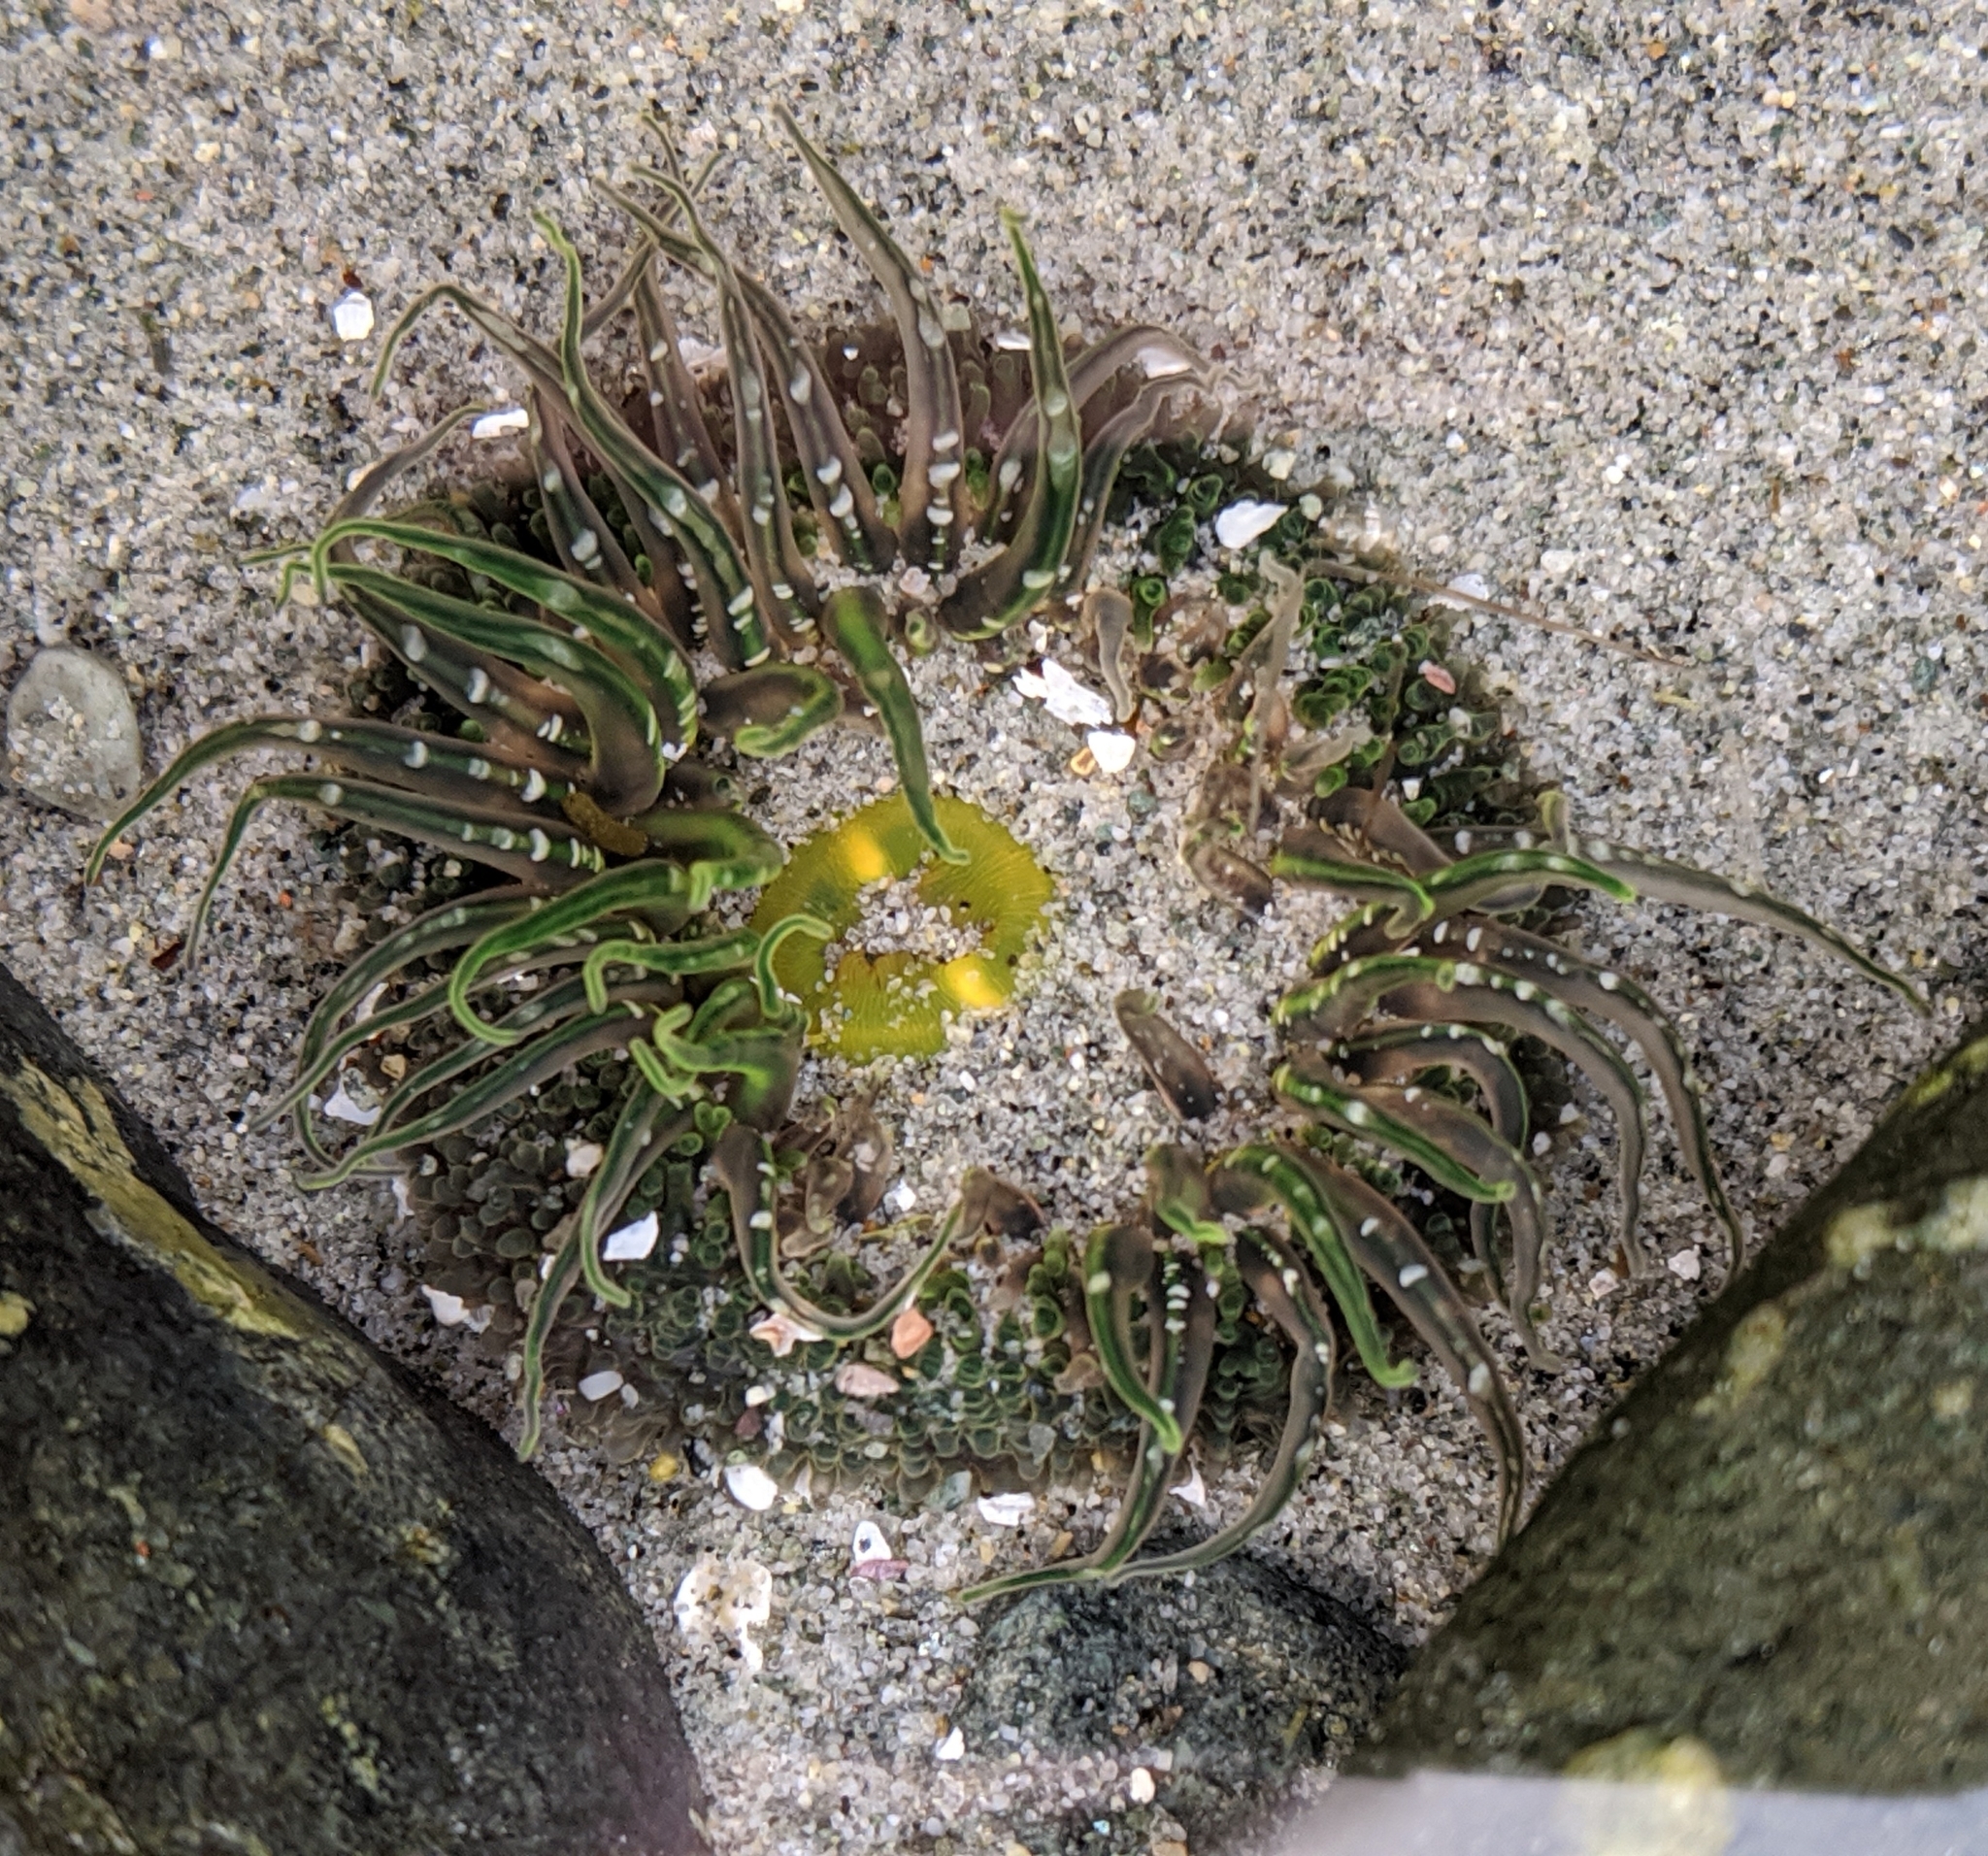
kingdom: Animalia
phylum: Cnidaria
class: Anthozoa
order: Actiniaria
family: Actiniidae
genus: Anthopleura
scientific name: Anthopleura artemisia
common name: Buried sea anemone
